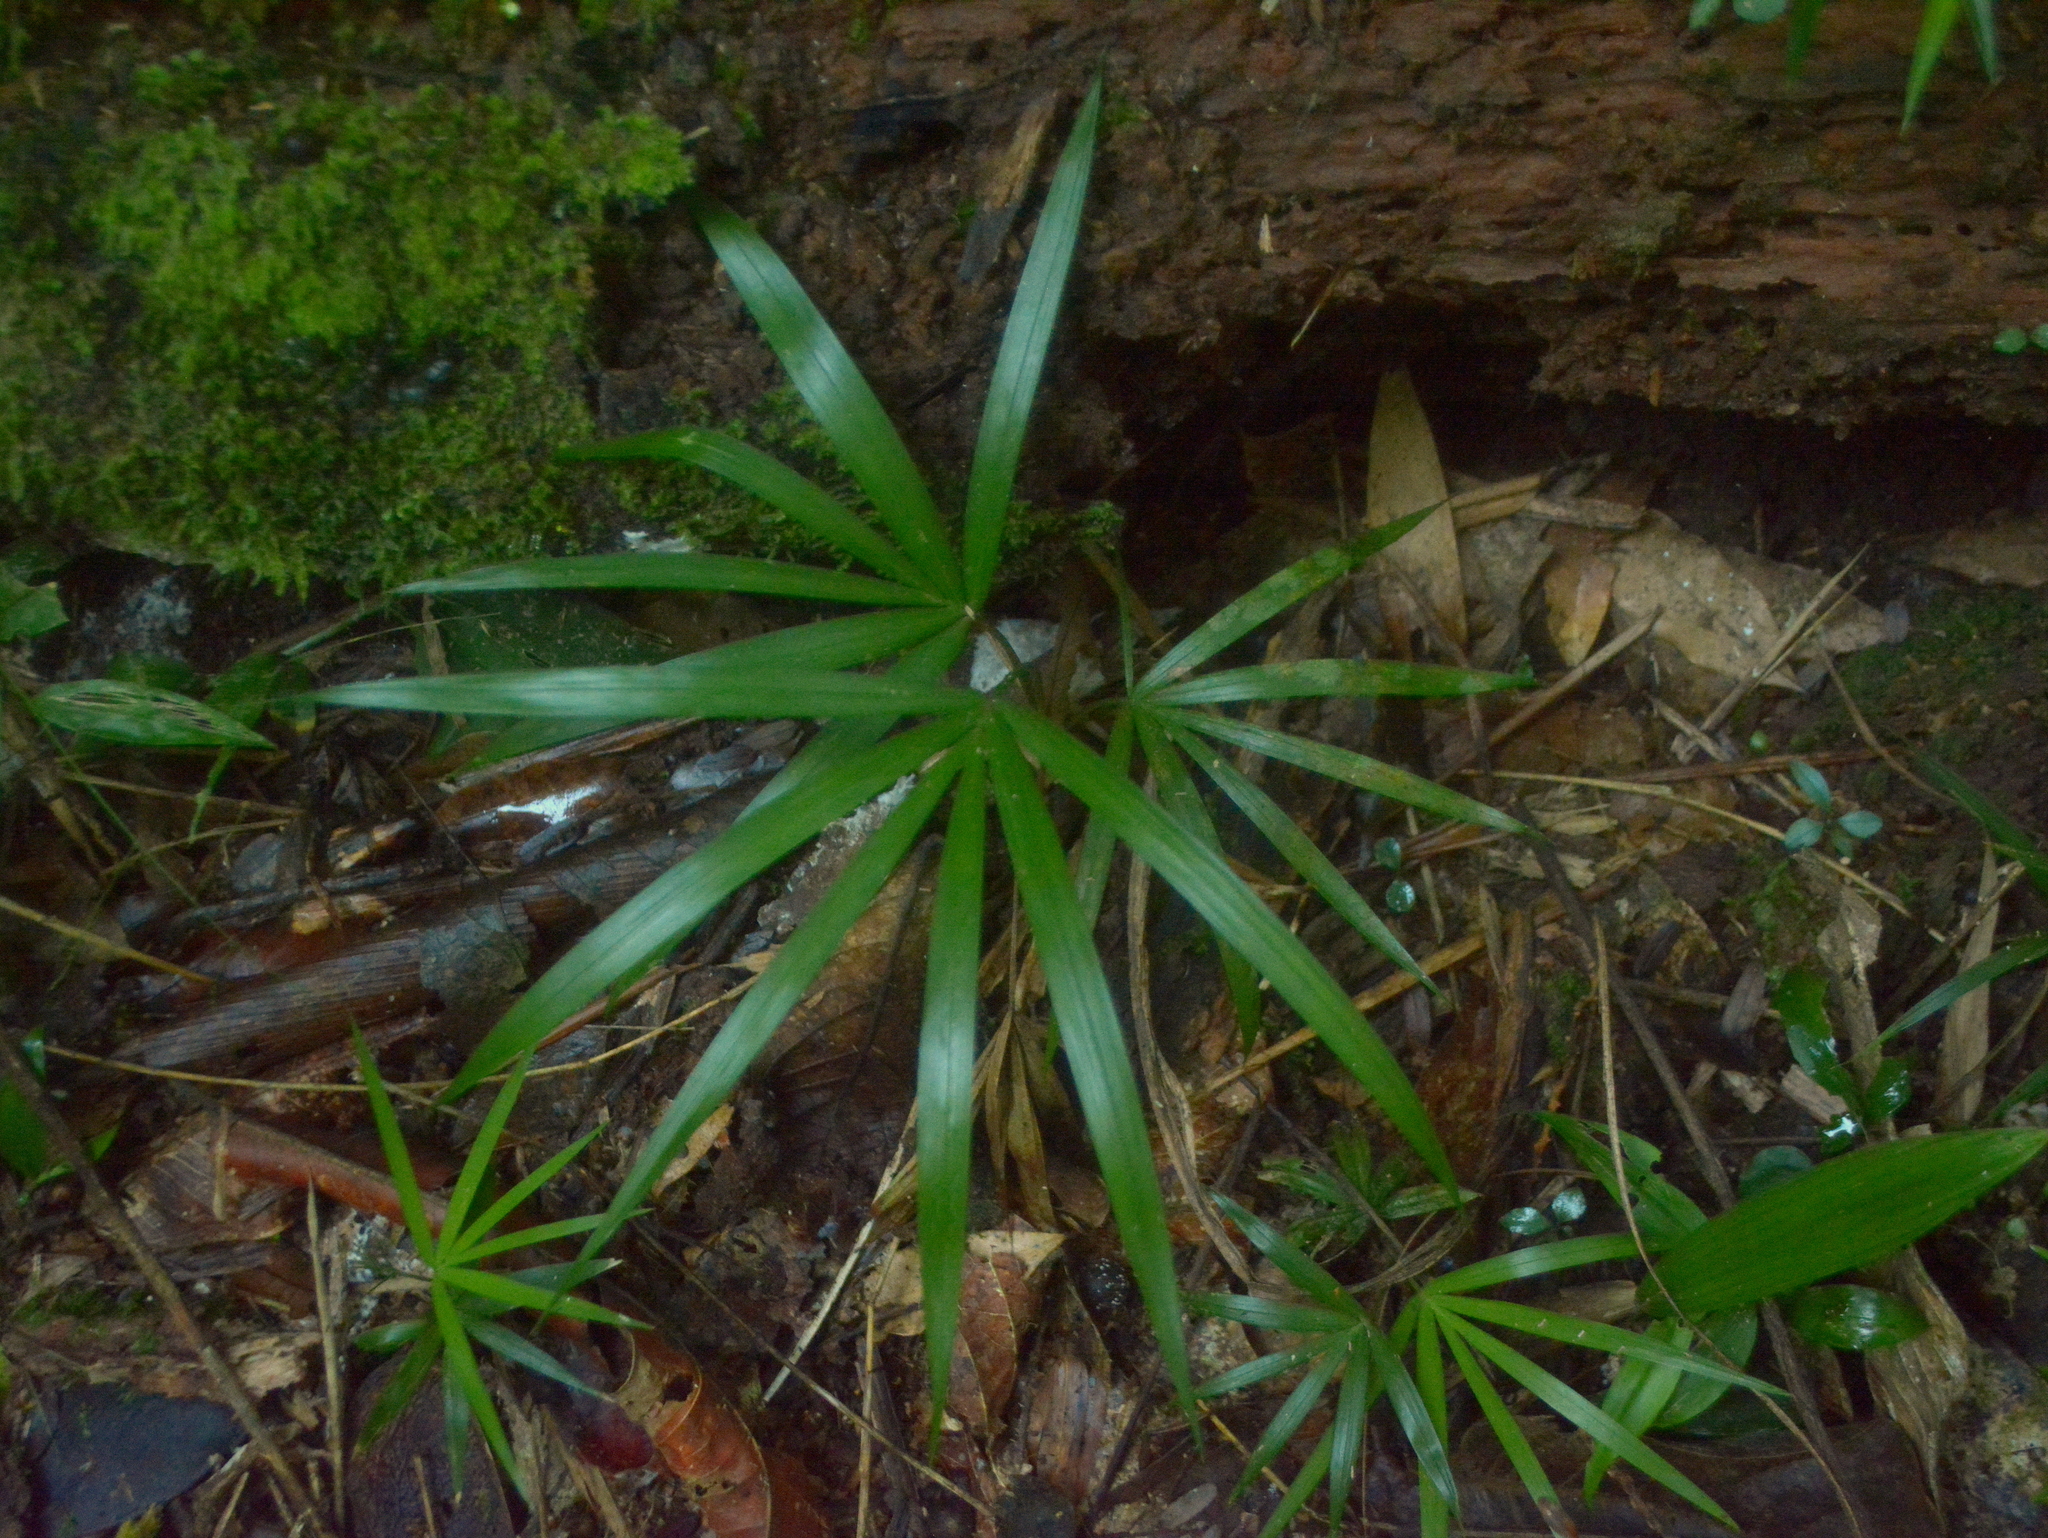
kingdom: Plantae
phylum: Tracheophyta
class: Liliopsida
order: Arecales
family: Arecaceae
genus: Euterpe
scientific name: Euterpe edulis
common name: Assai palm
